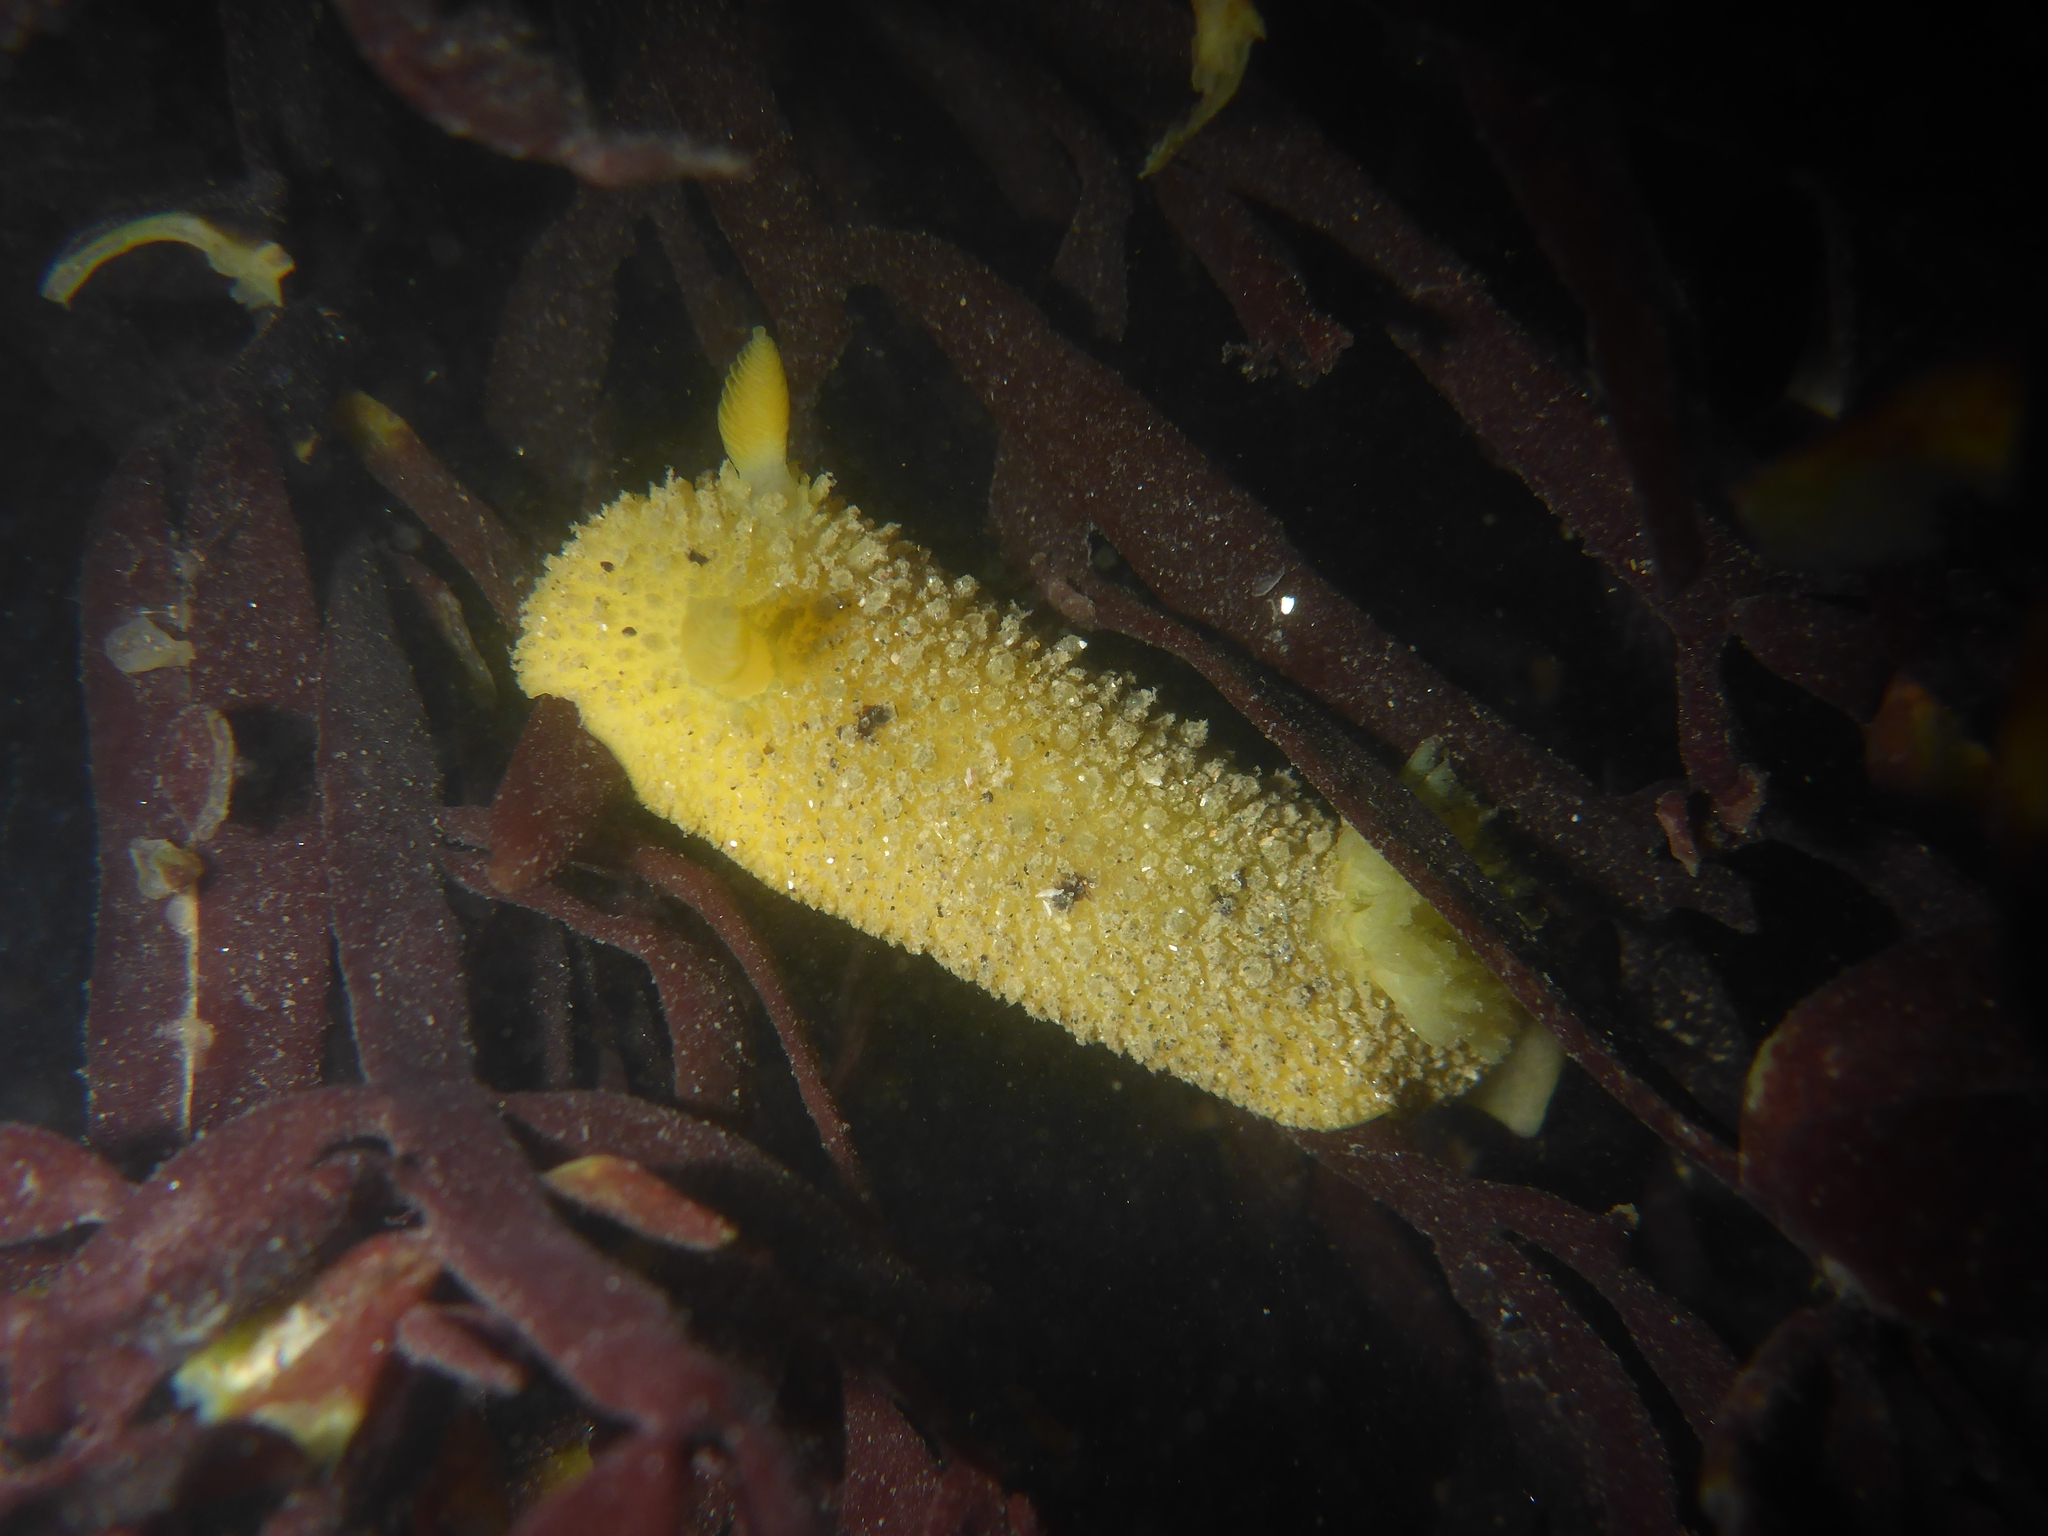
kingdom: Animalia
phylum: Mollusca
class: Gastropoda
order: Nudibranchia
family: Dorididae
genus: Doris
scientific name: Doris montereyensis
